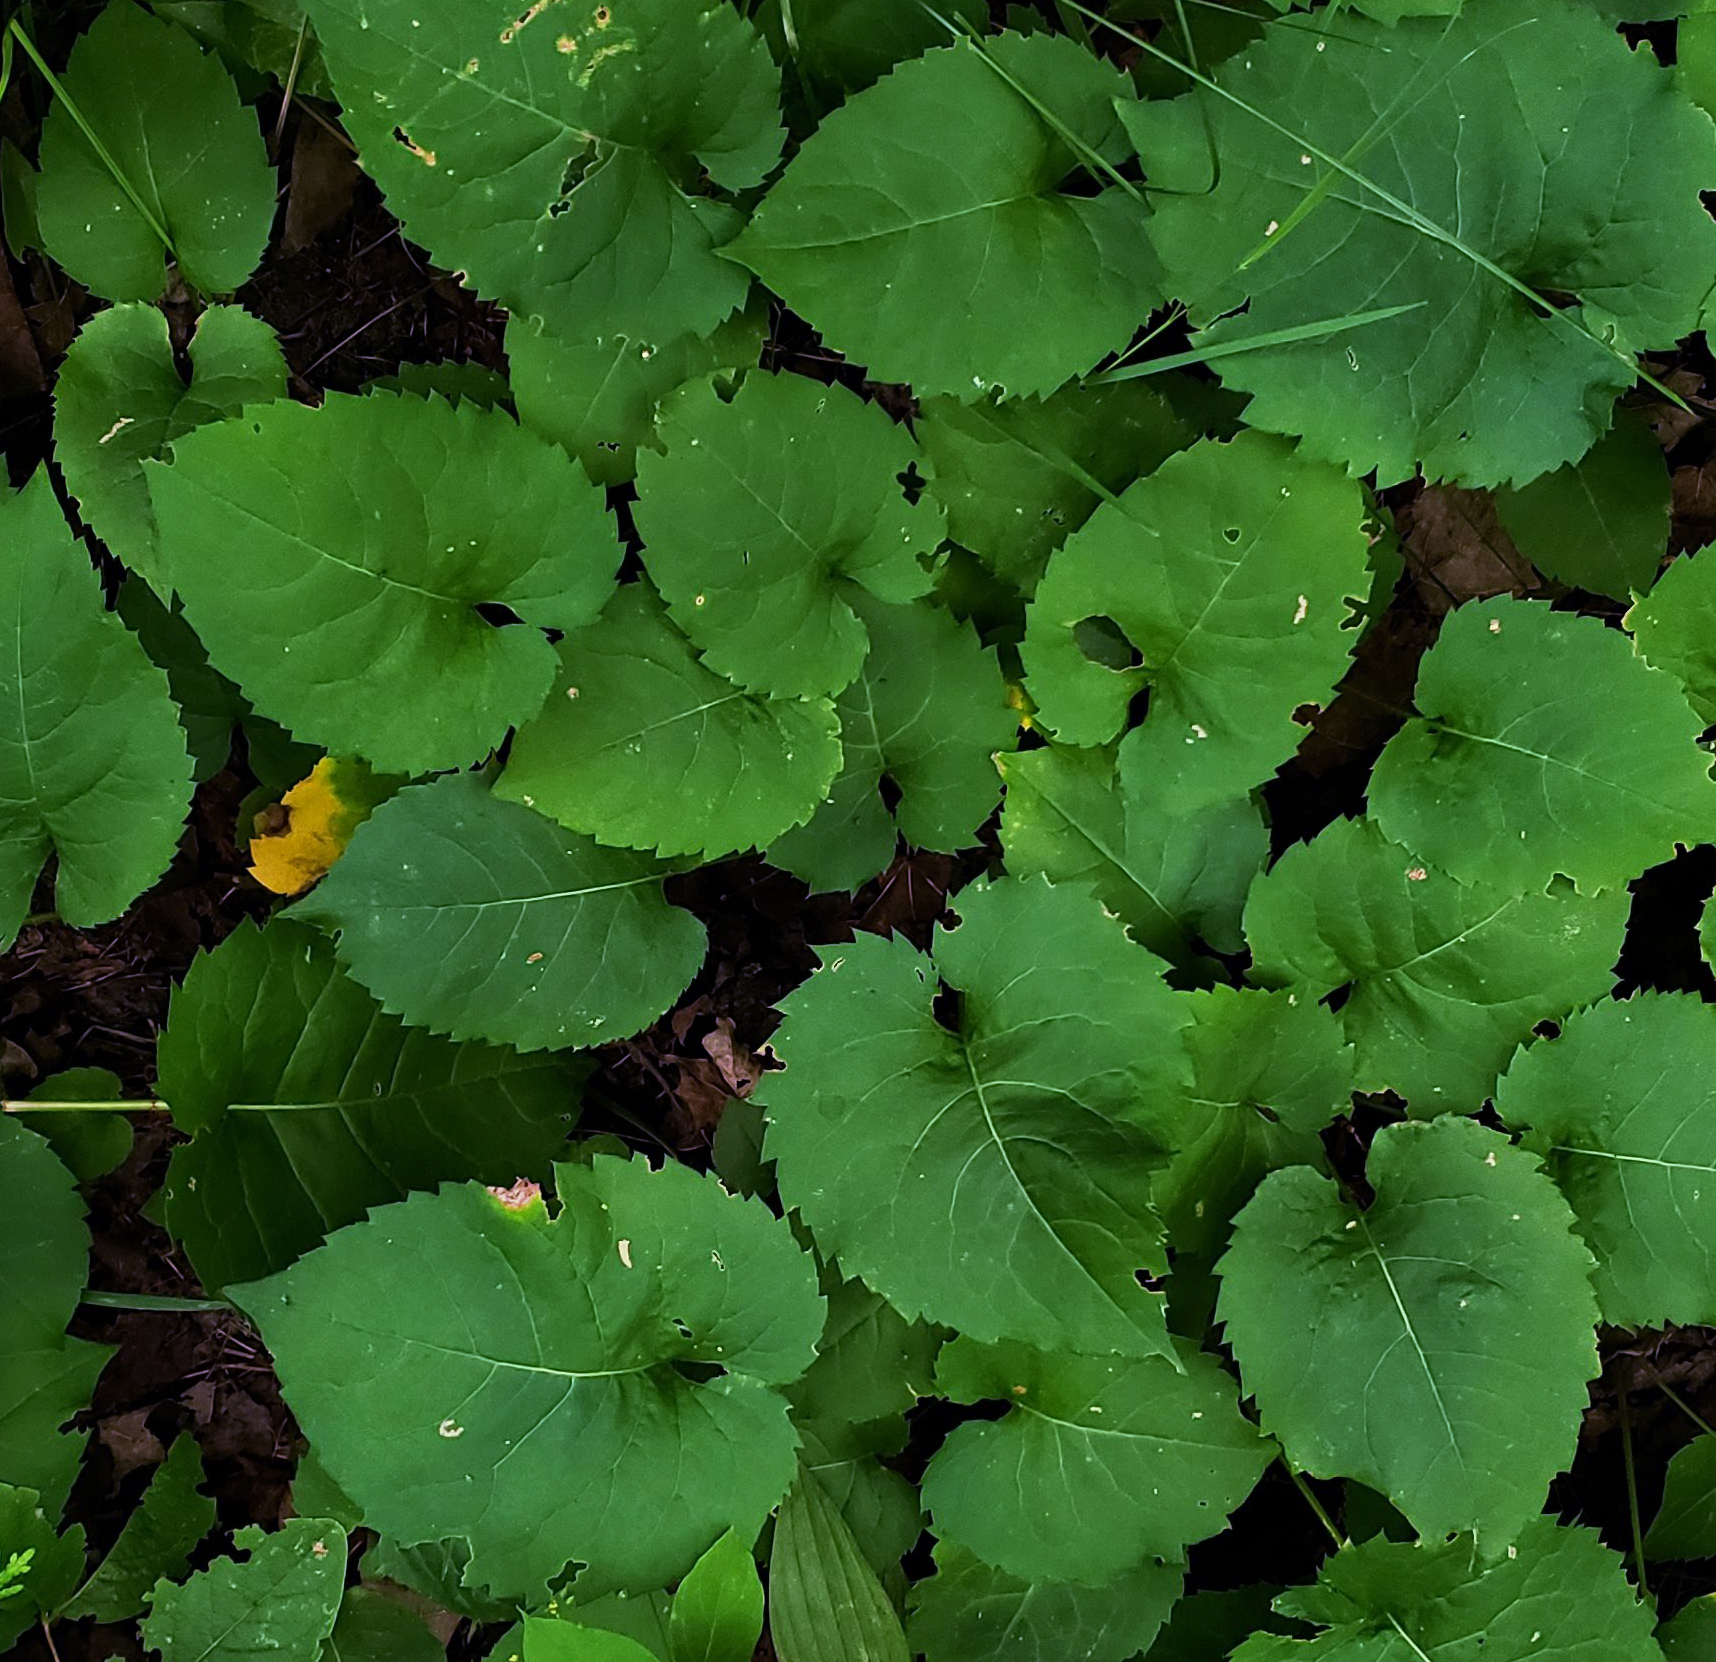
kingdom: Plantae
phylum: Tracheophyta
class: Magnoliopsida
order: Asterales
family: Asteraceae
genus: Eurybia
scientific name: Eurybia macrophylla
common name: Big-leaved aster
